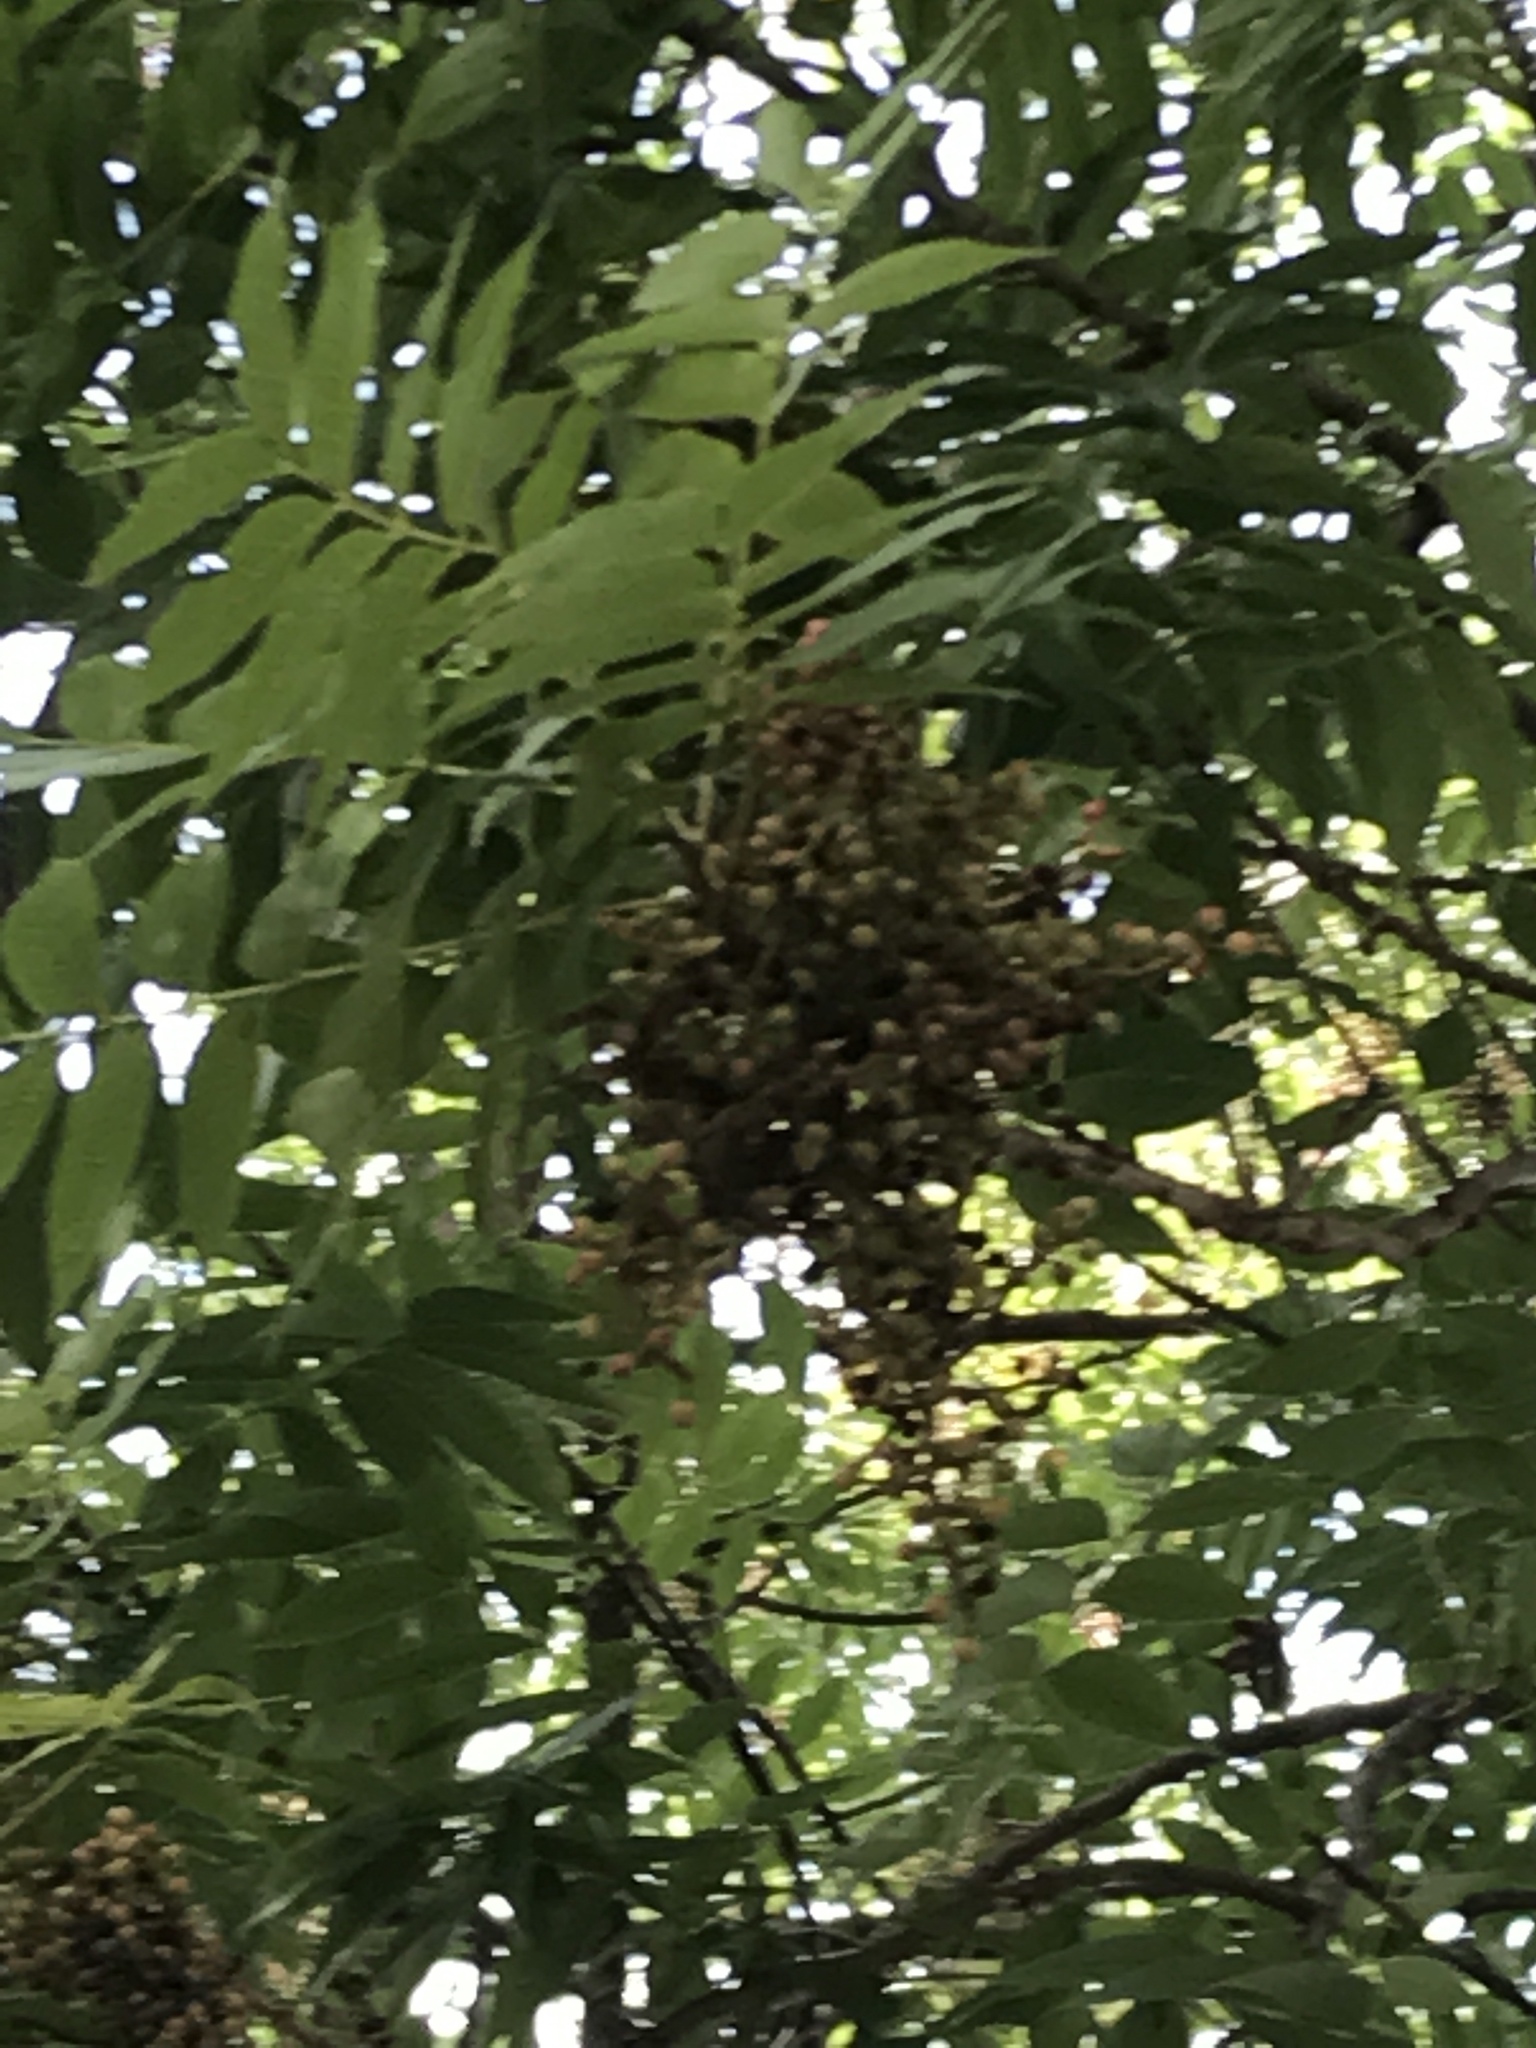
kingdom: Plantae
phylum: Tracheophyta
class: Magnoliopsida
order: Sapindales
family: Sapindaceae
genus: Sapindus
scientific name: Sapindus drummondii
